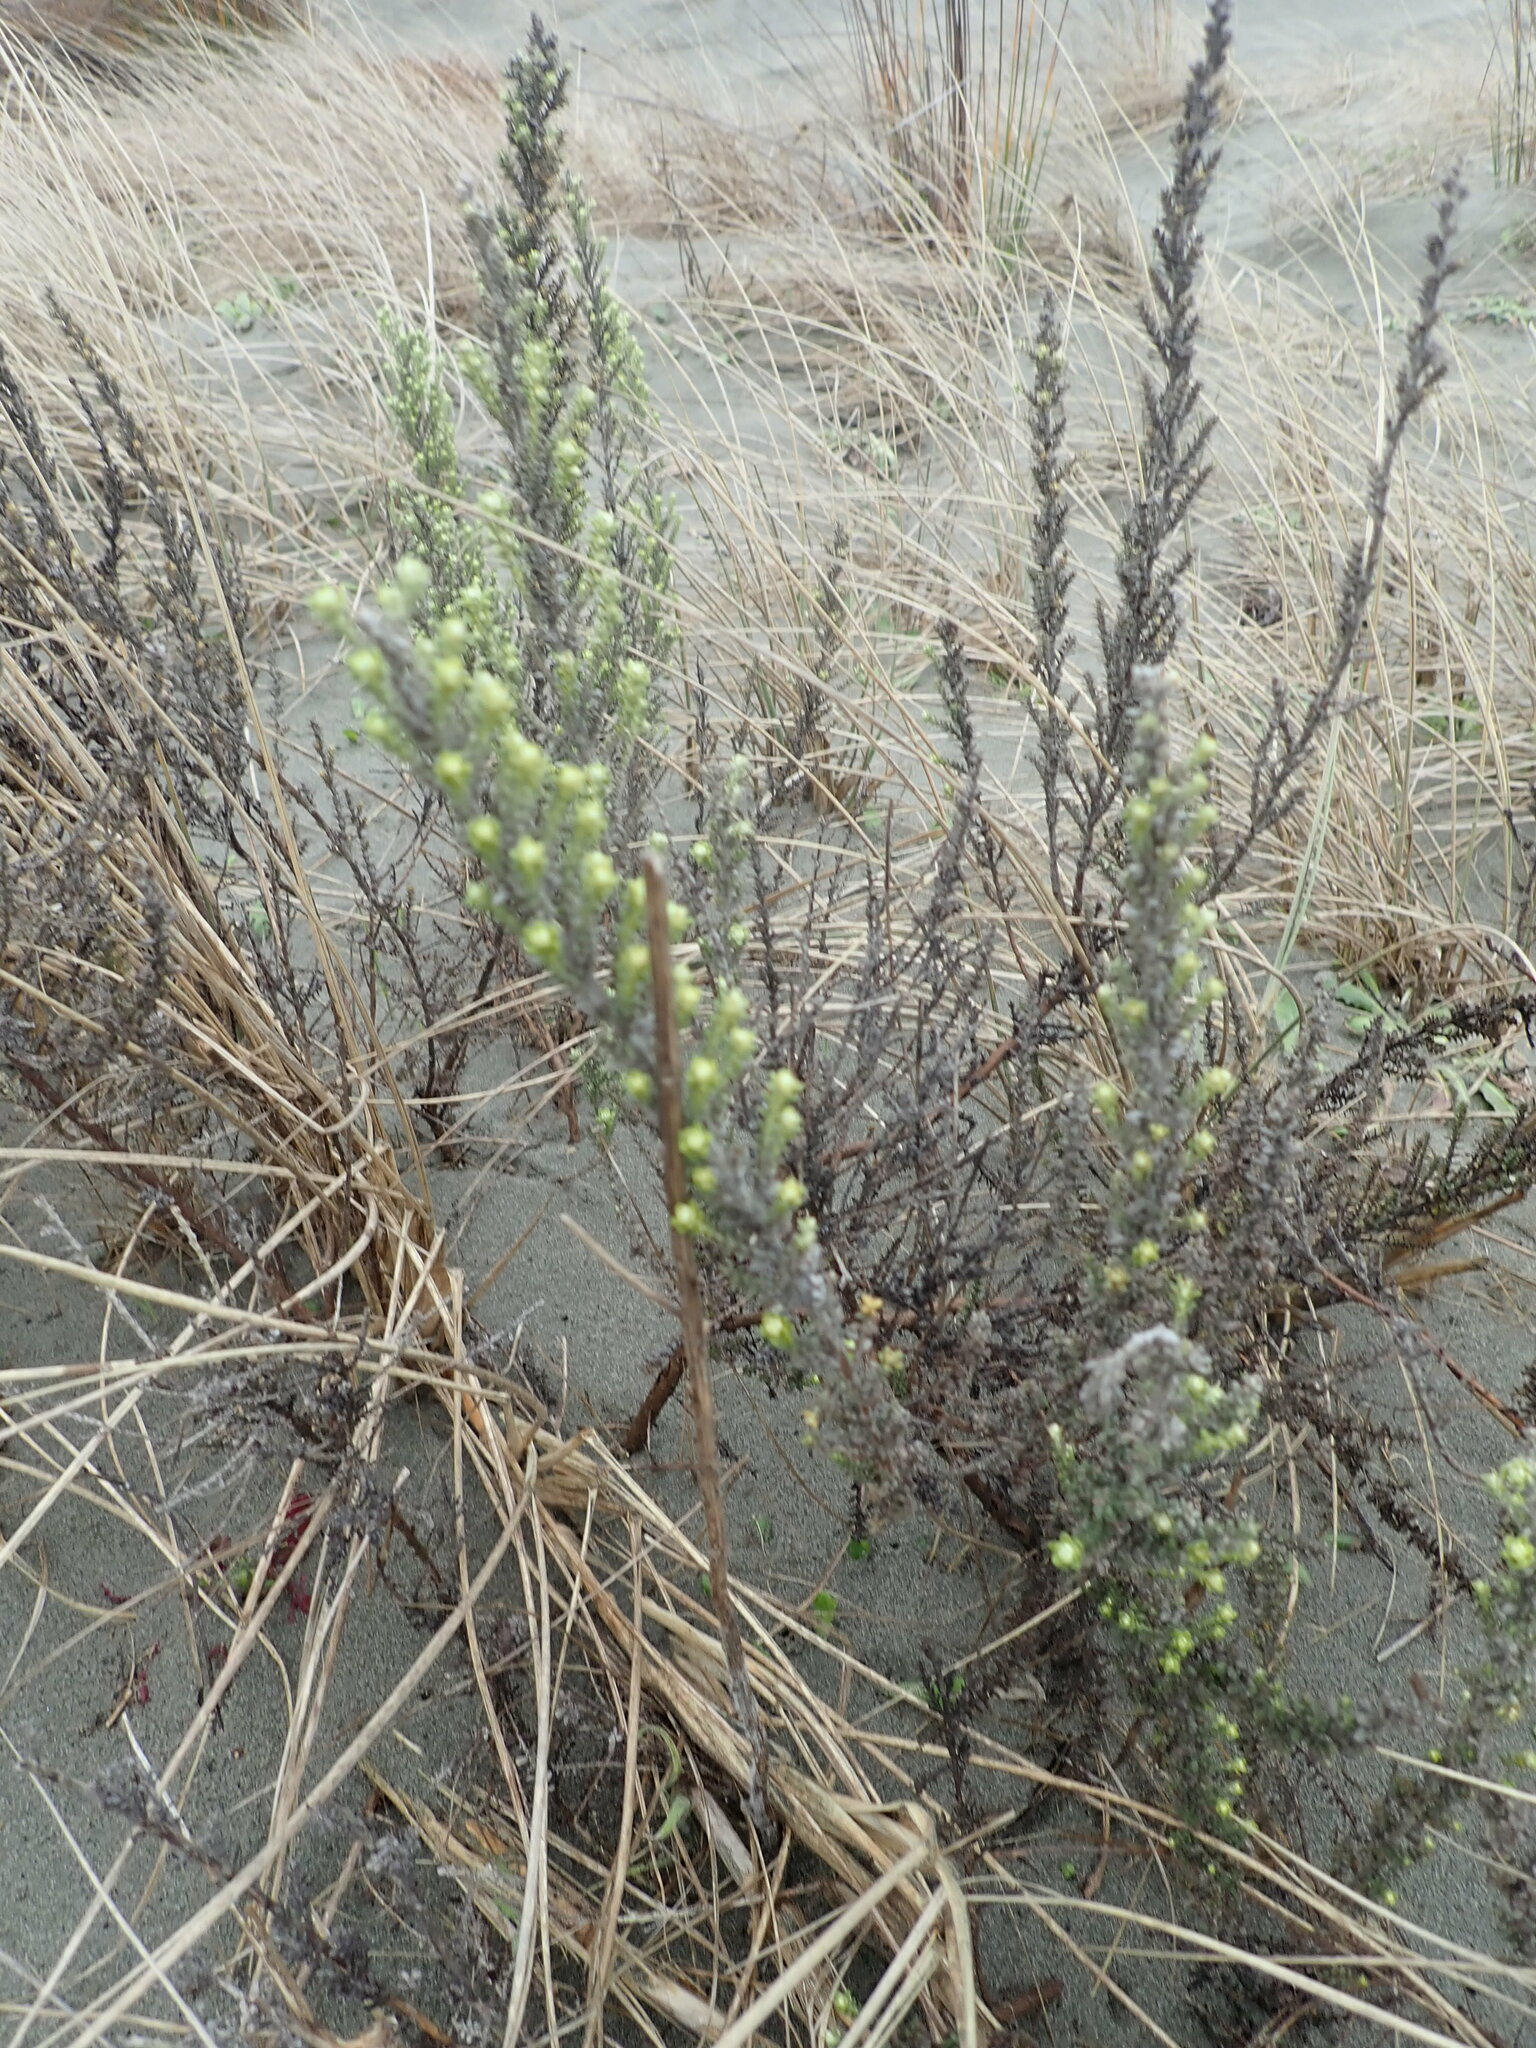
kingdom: Plantae
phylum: Tracheophyta
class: Magnoliopsida
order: Asterales
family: Asteraceae
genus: Ozothamnus
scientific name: Ozothamnus leptophyllus
